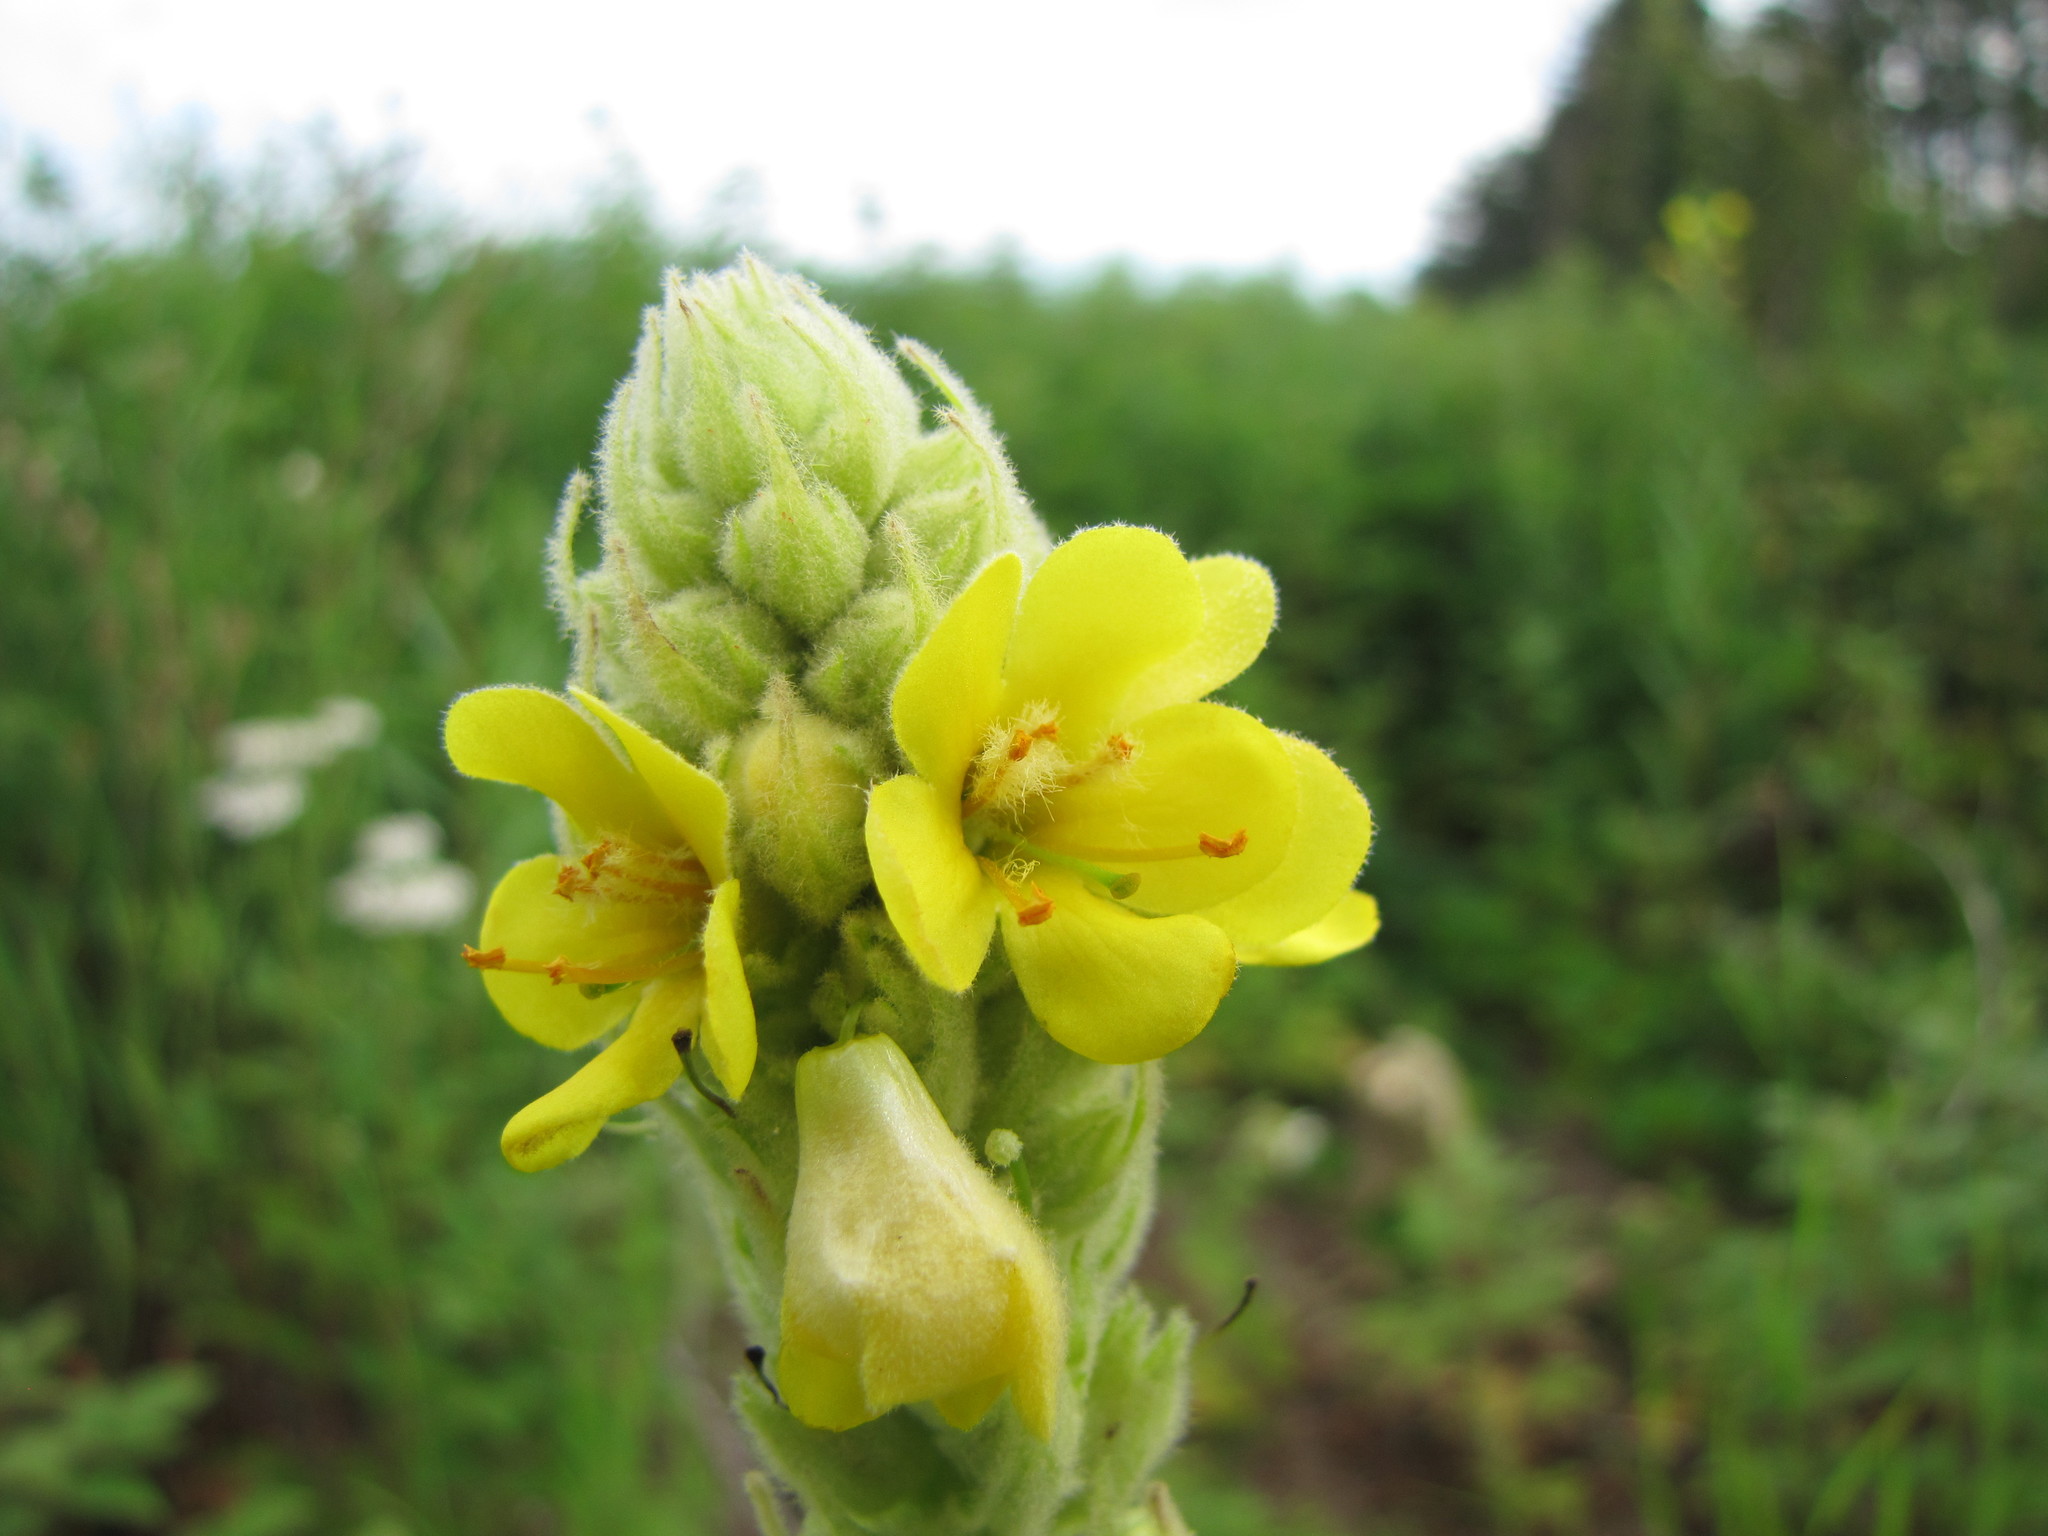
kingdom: Plantae
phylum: Tracheophyta
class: Magnoliopsida
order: Lamiales
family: Scrophulariaceae
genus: Verbascum
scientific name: Verbascum thapsus
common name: Common mullein
